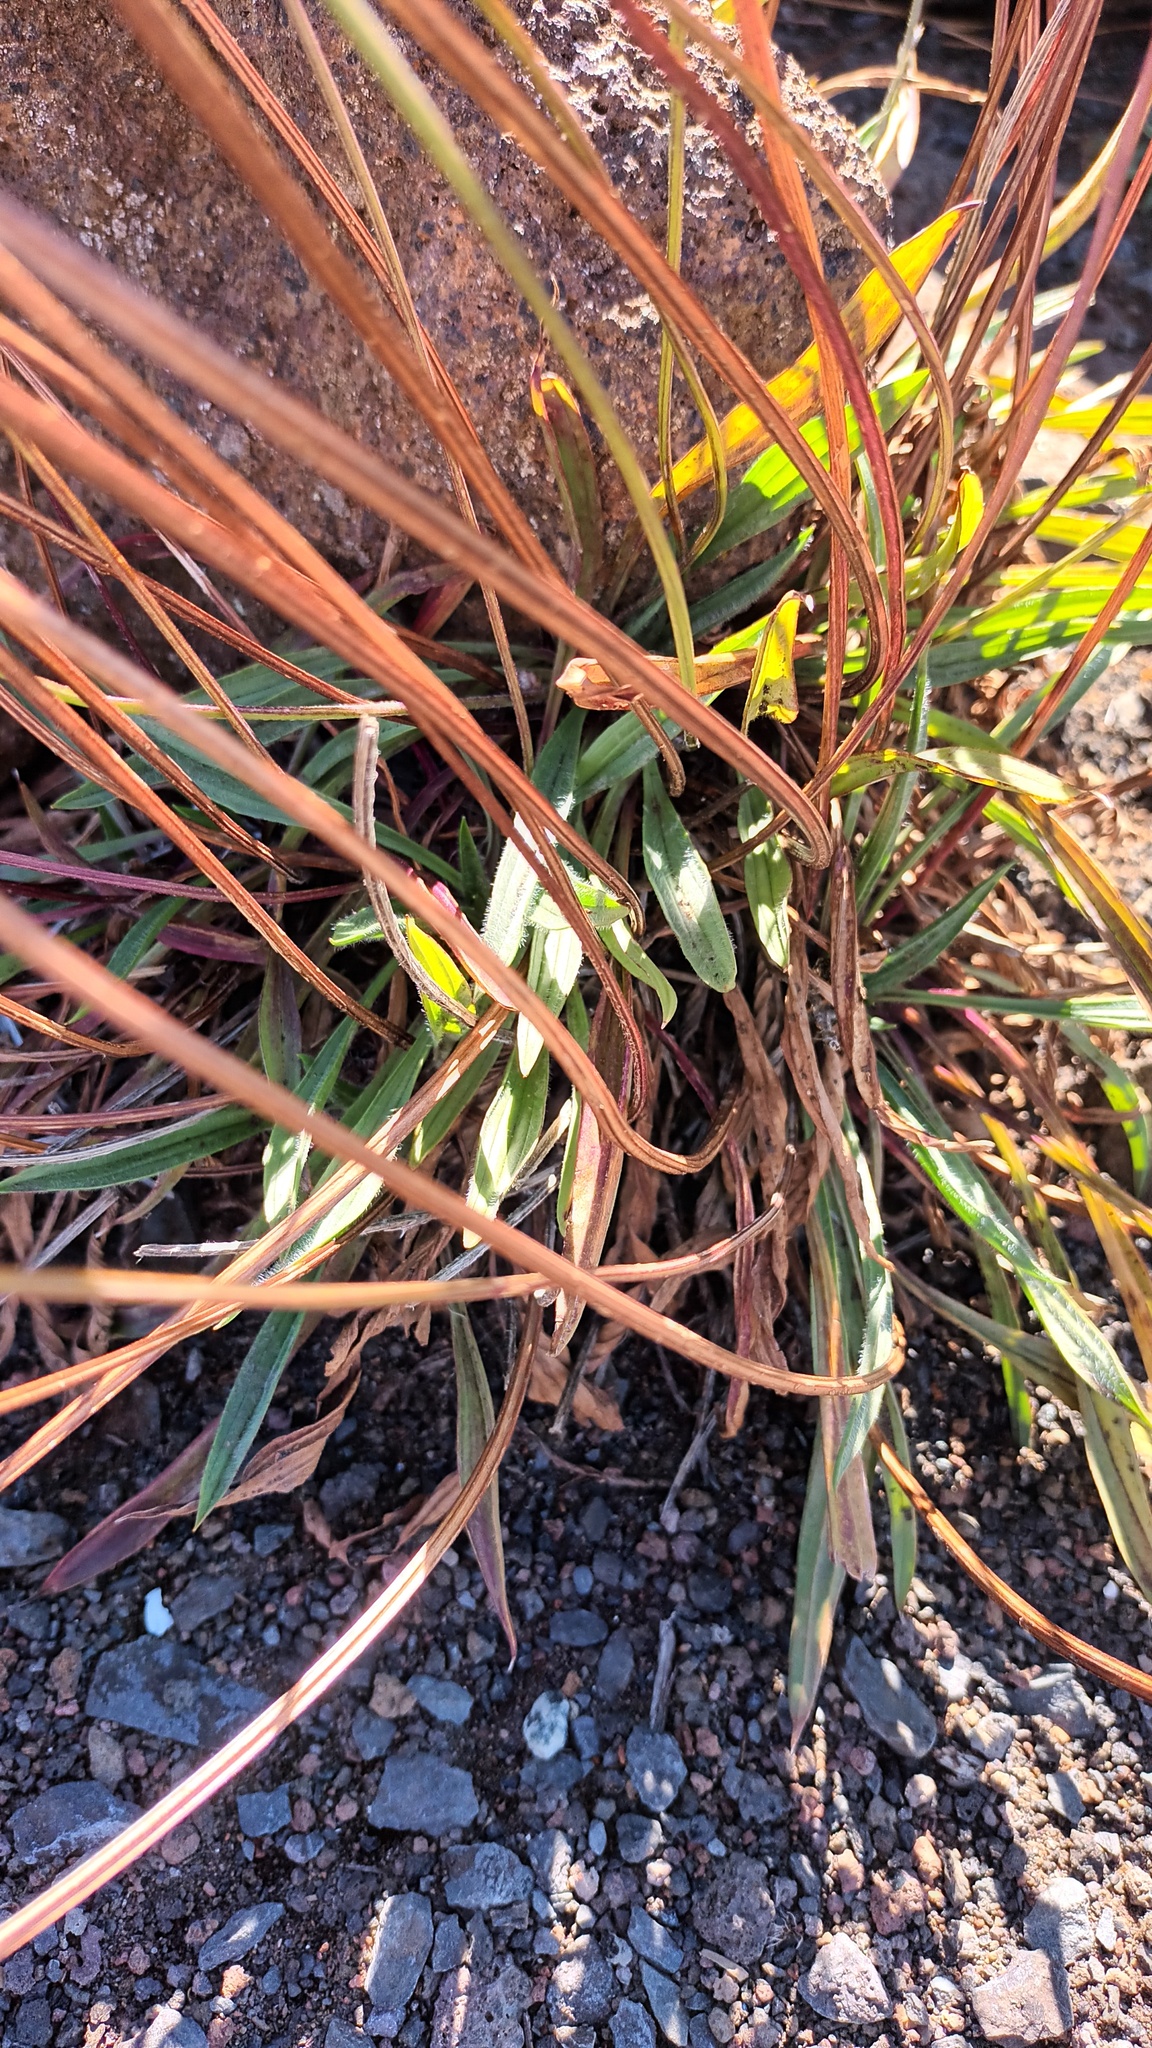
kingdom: Plantae
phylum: Tracheophyta
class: Magnoliopsida
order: Lamiales
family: Plantaginaceae
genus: Plantago
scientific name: Plantago lanceolata
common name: Ribwort plantain
